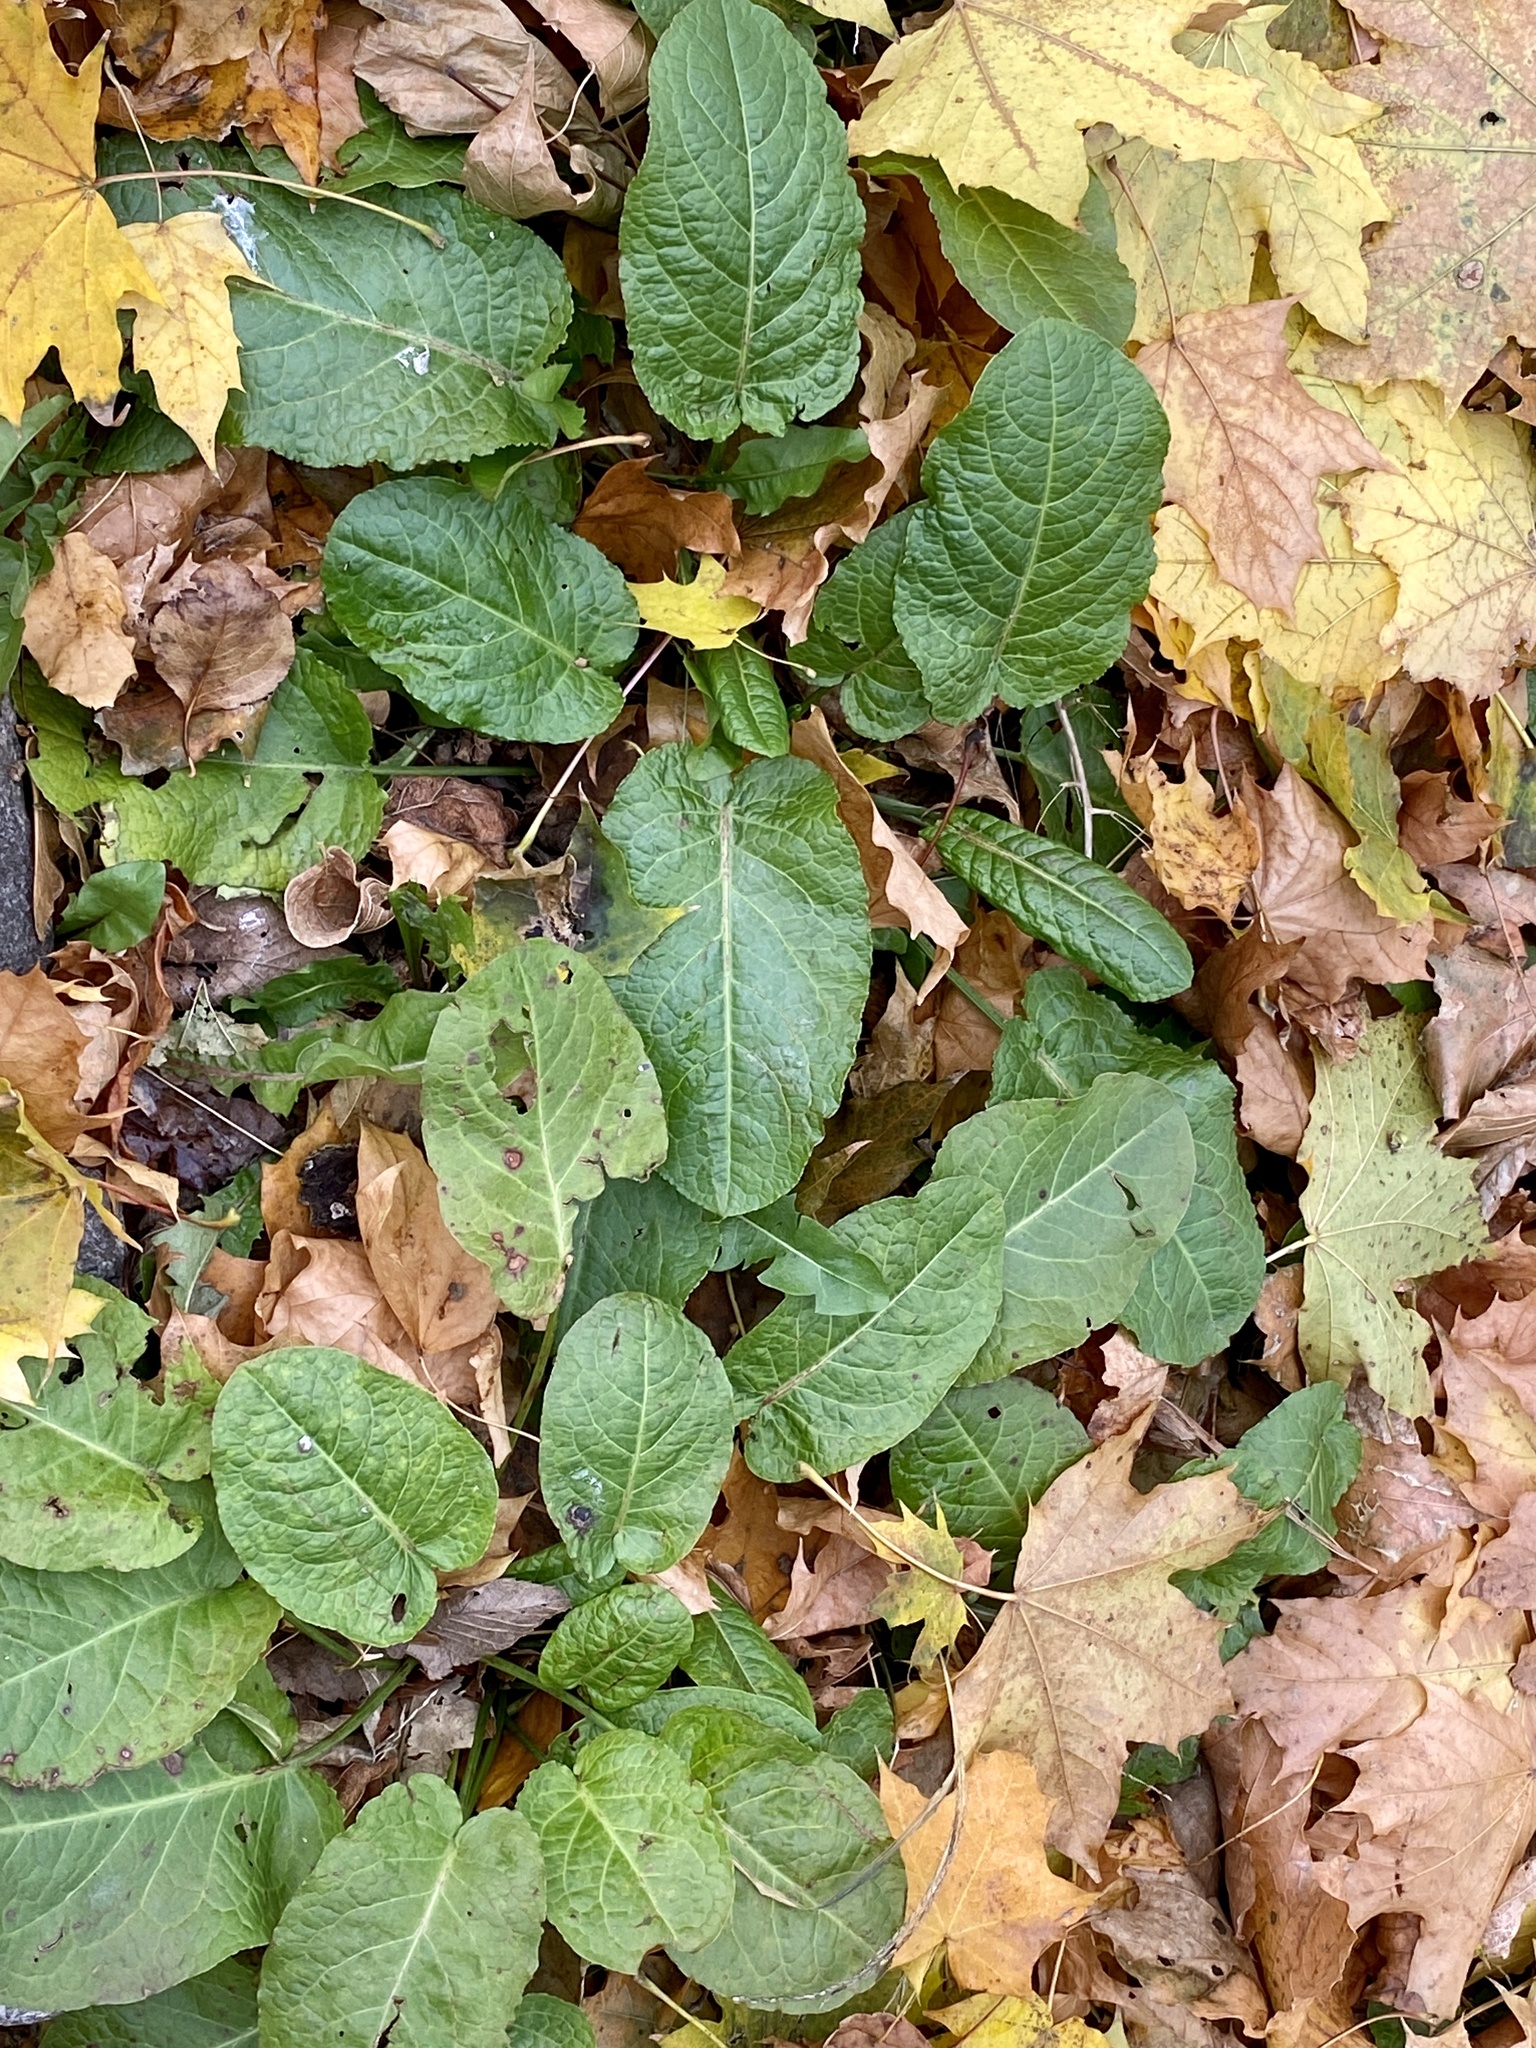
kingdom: Plantae
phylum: Tracheophyta
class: Magnoliopsida
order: Caryophyllales
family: Polygonaceae
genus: Rumex
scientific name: Rumex obtusifolius
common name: Bitter dock
